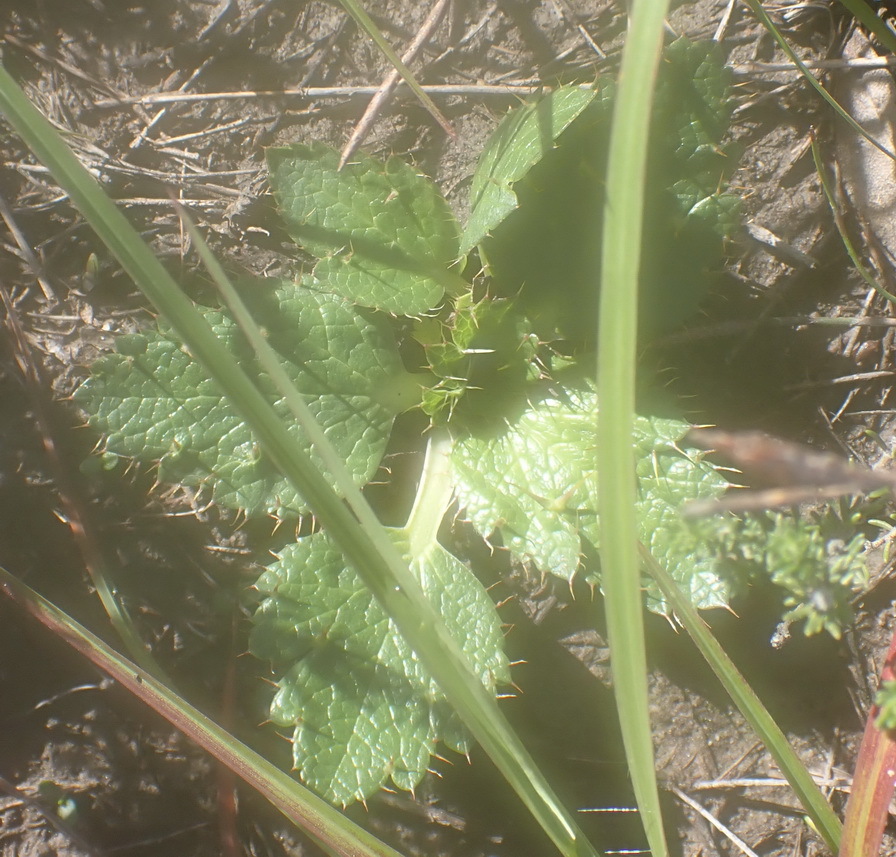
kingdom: Plantae
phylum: Tracheophyta
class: Magnoliopsida
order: Apiales
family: Apiaceae
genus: Arctopus
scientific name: Arctopus echinatus
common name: Platdoring
